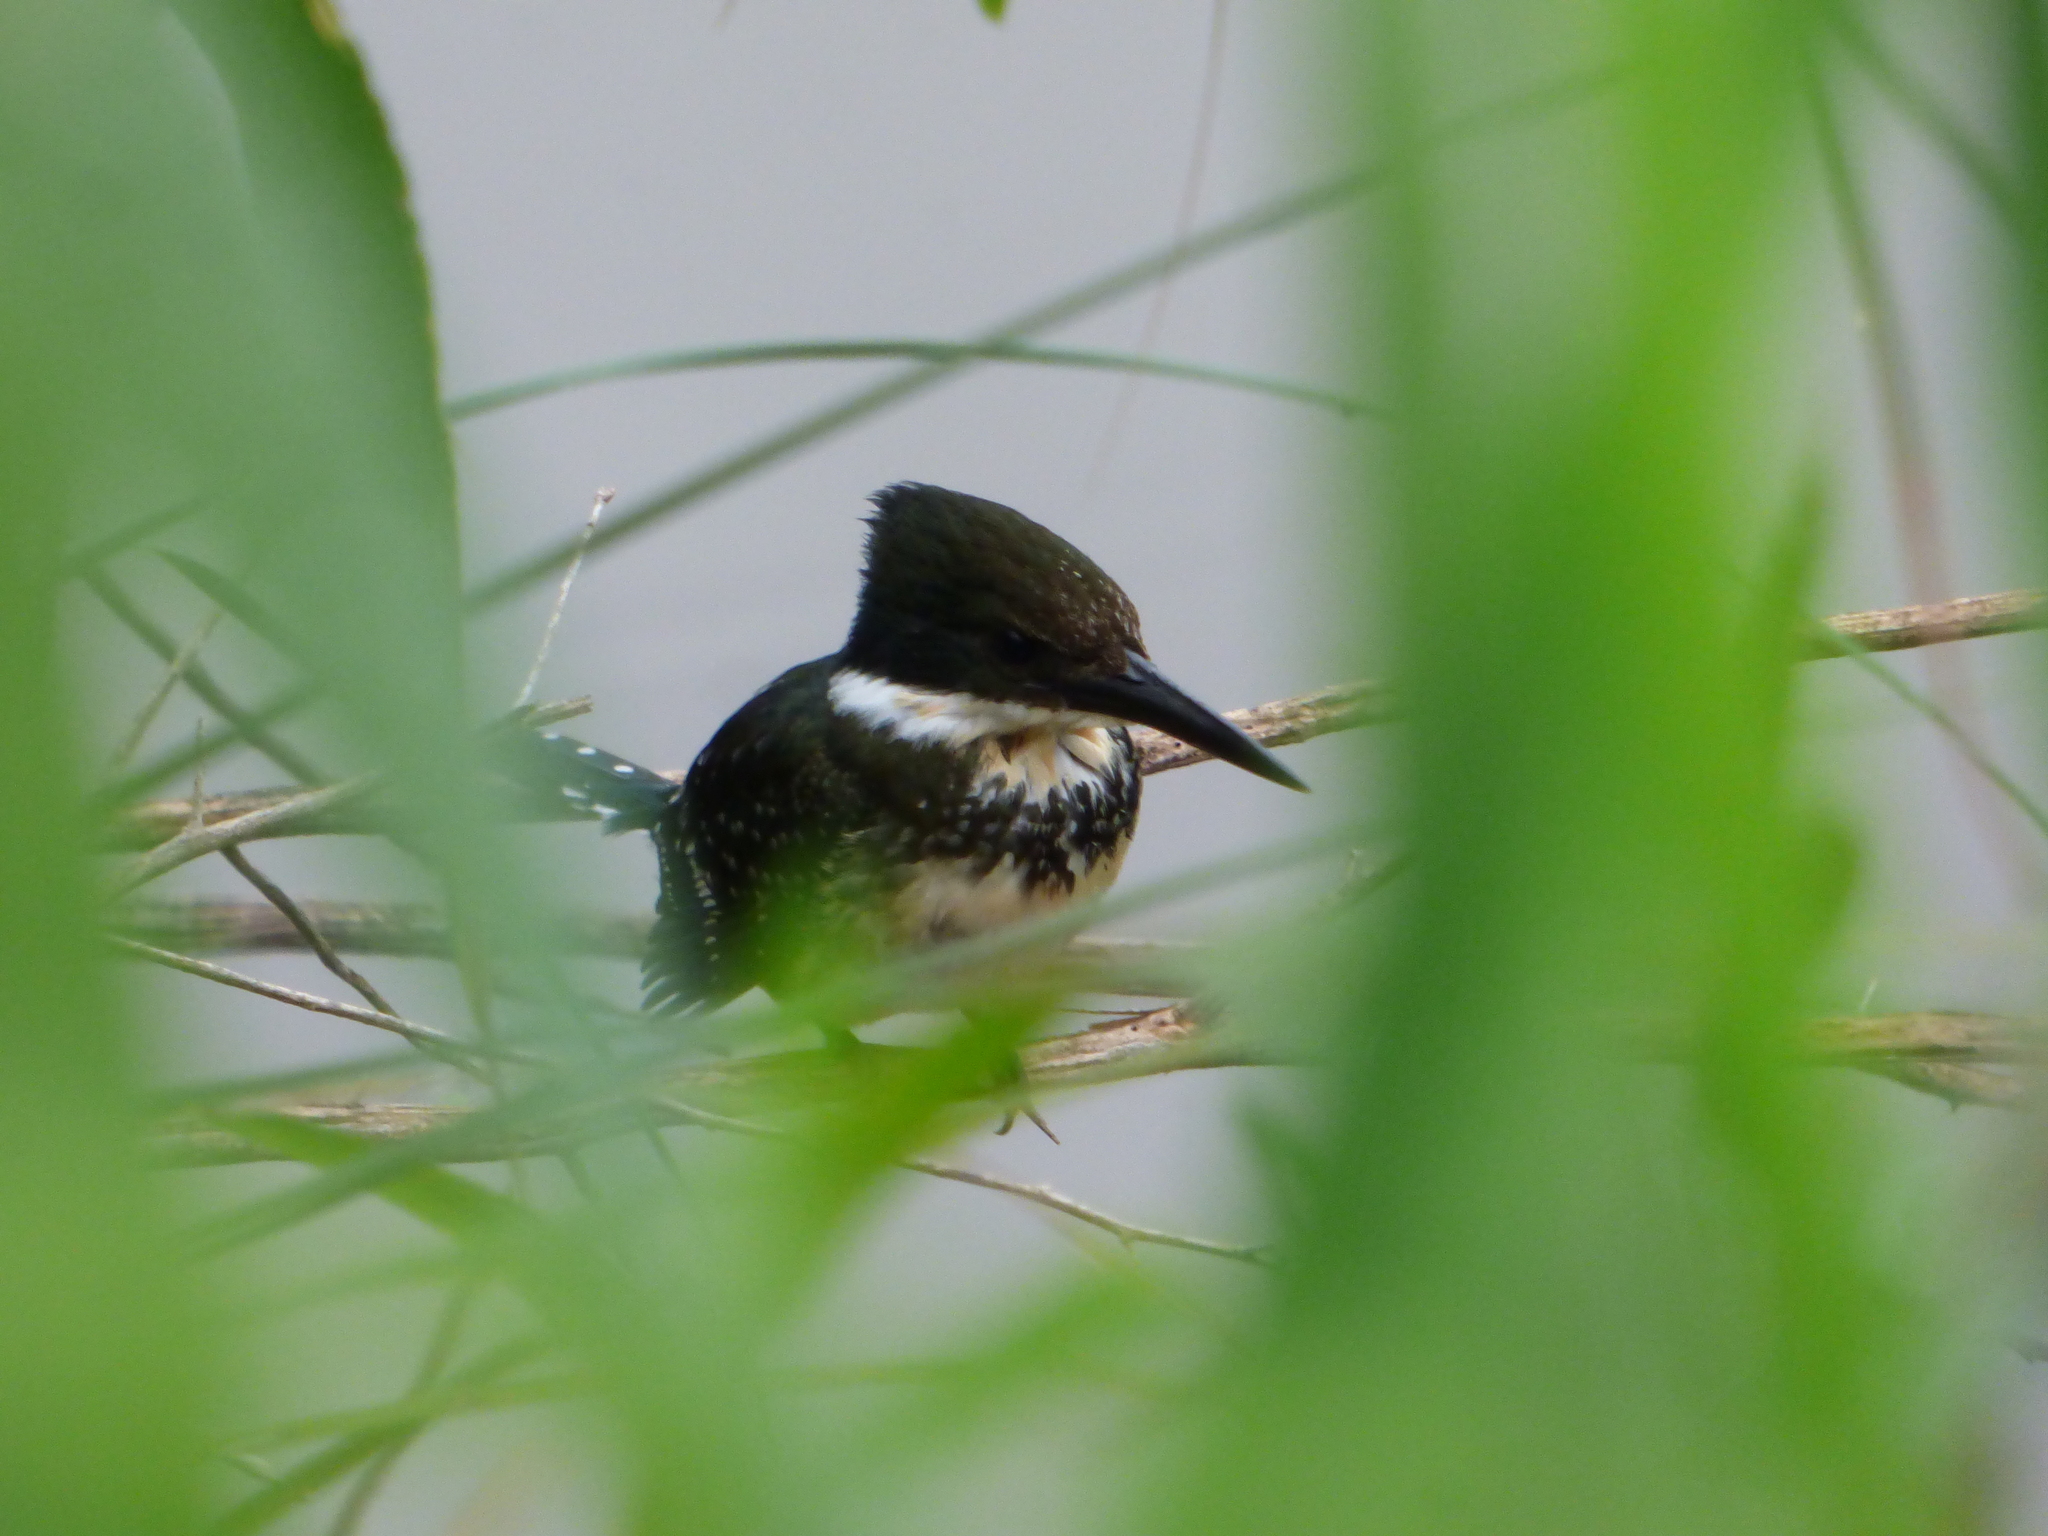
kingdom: Animalia
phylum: Chordata
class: Aves
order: Coraciiformes
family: Alcedinidae
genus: Chloroceryle
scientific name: Chloroceryle americana
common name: Green kingfisher
